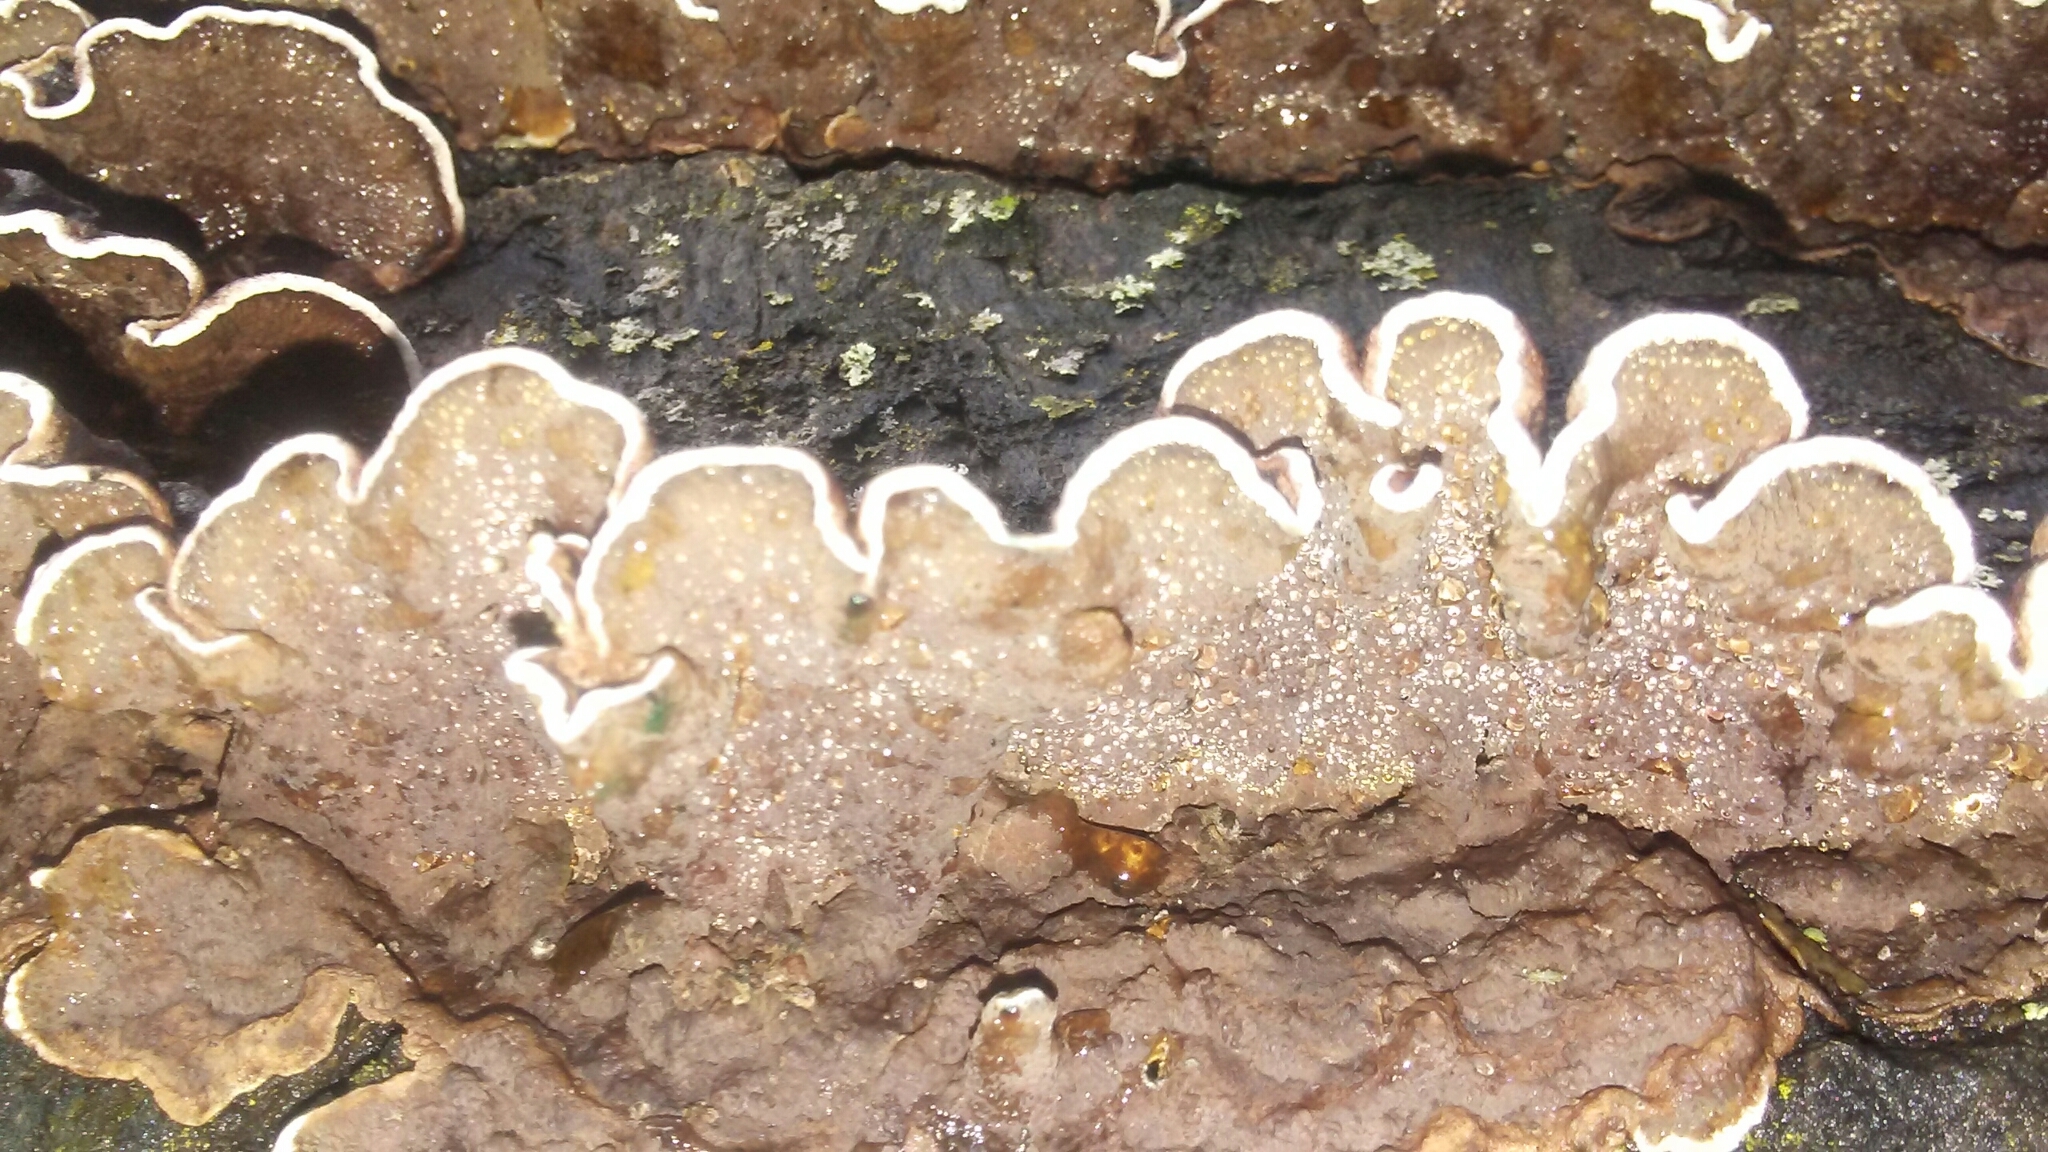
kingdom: Fungi
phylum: Basidiomycota
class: Agaricomycetes
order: Hymenochaetales
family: Hymenochaetaceae
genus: Hymenochaete
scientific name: Hymenochaete rubiginosa
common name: Oak curtain crust
